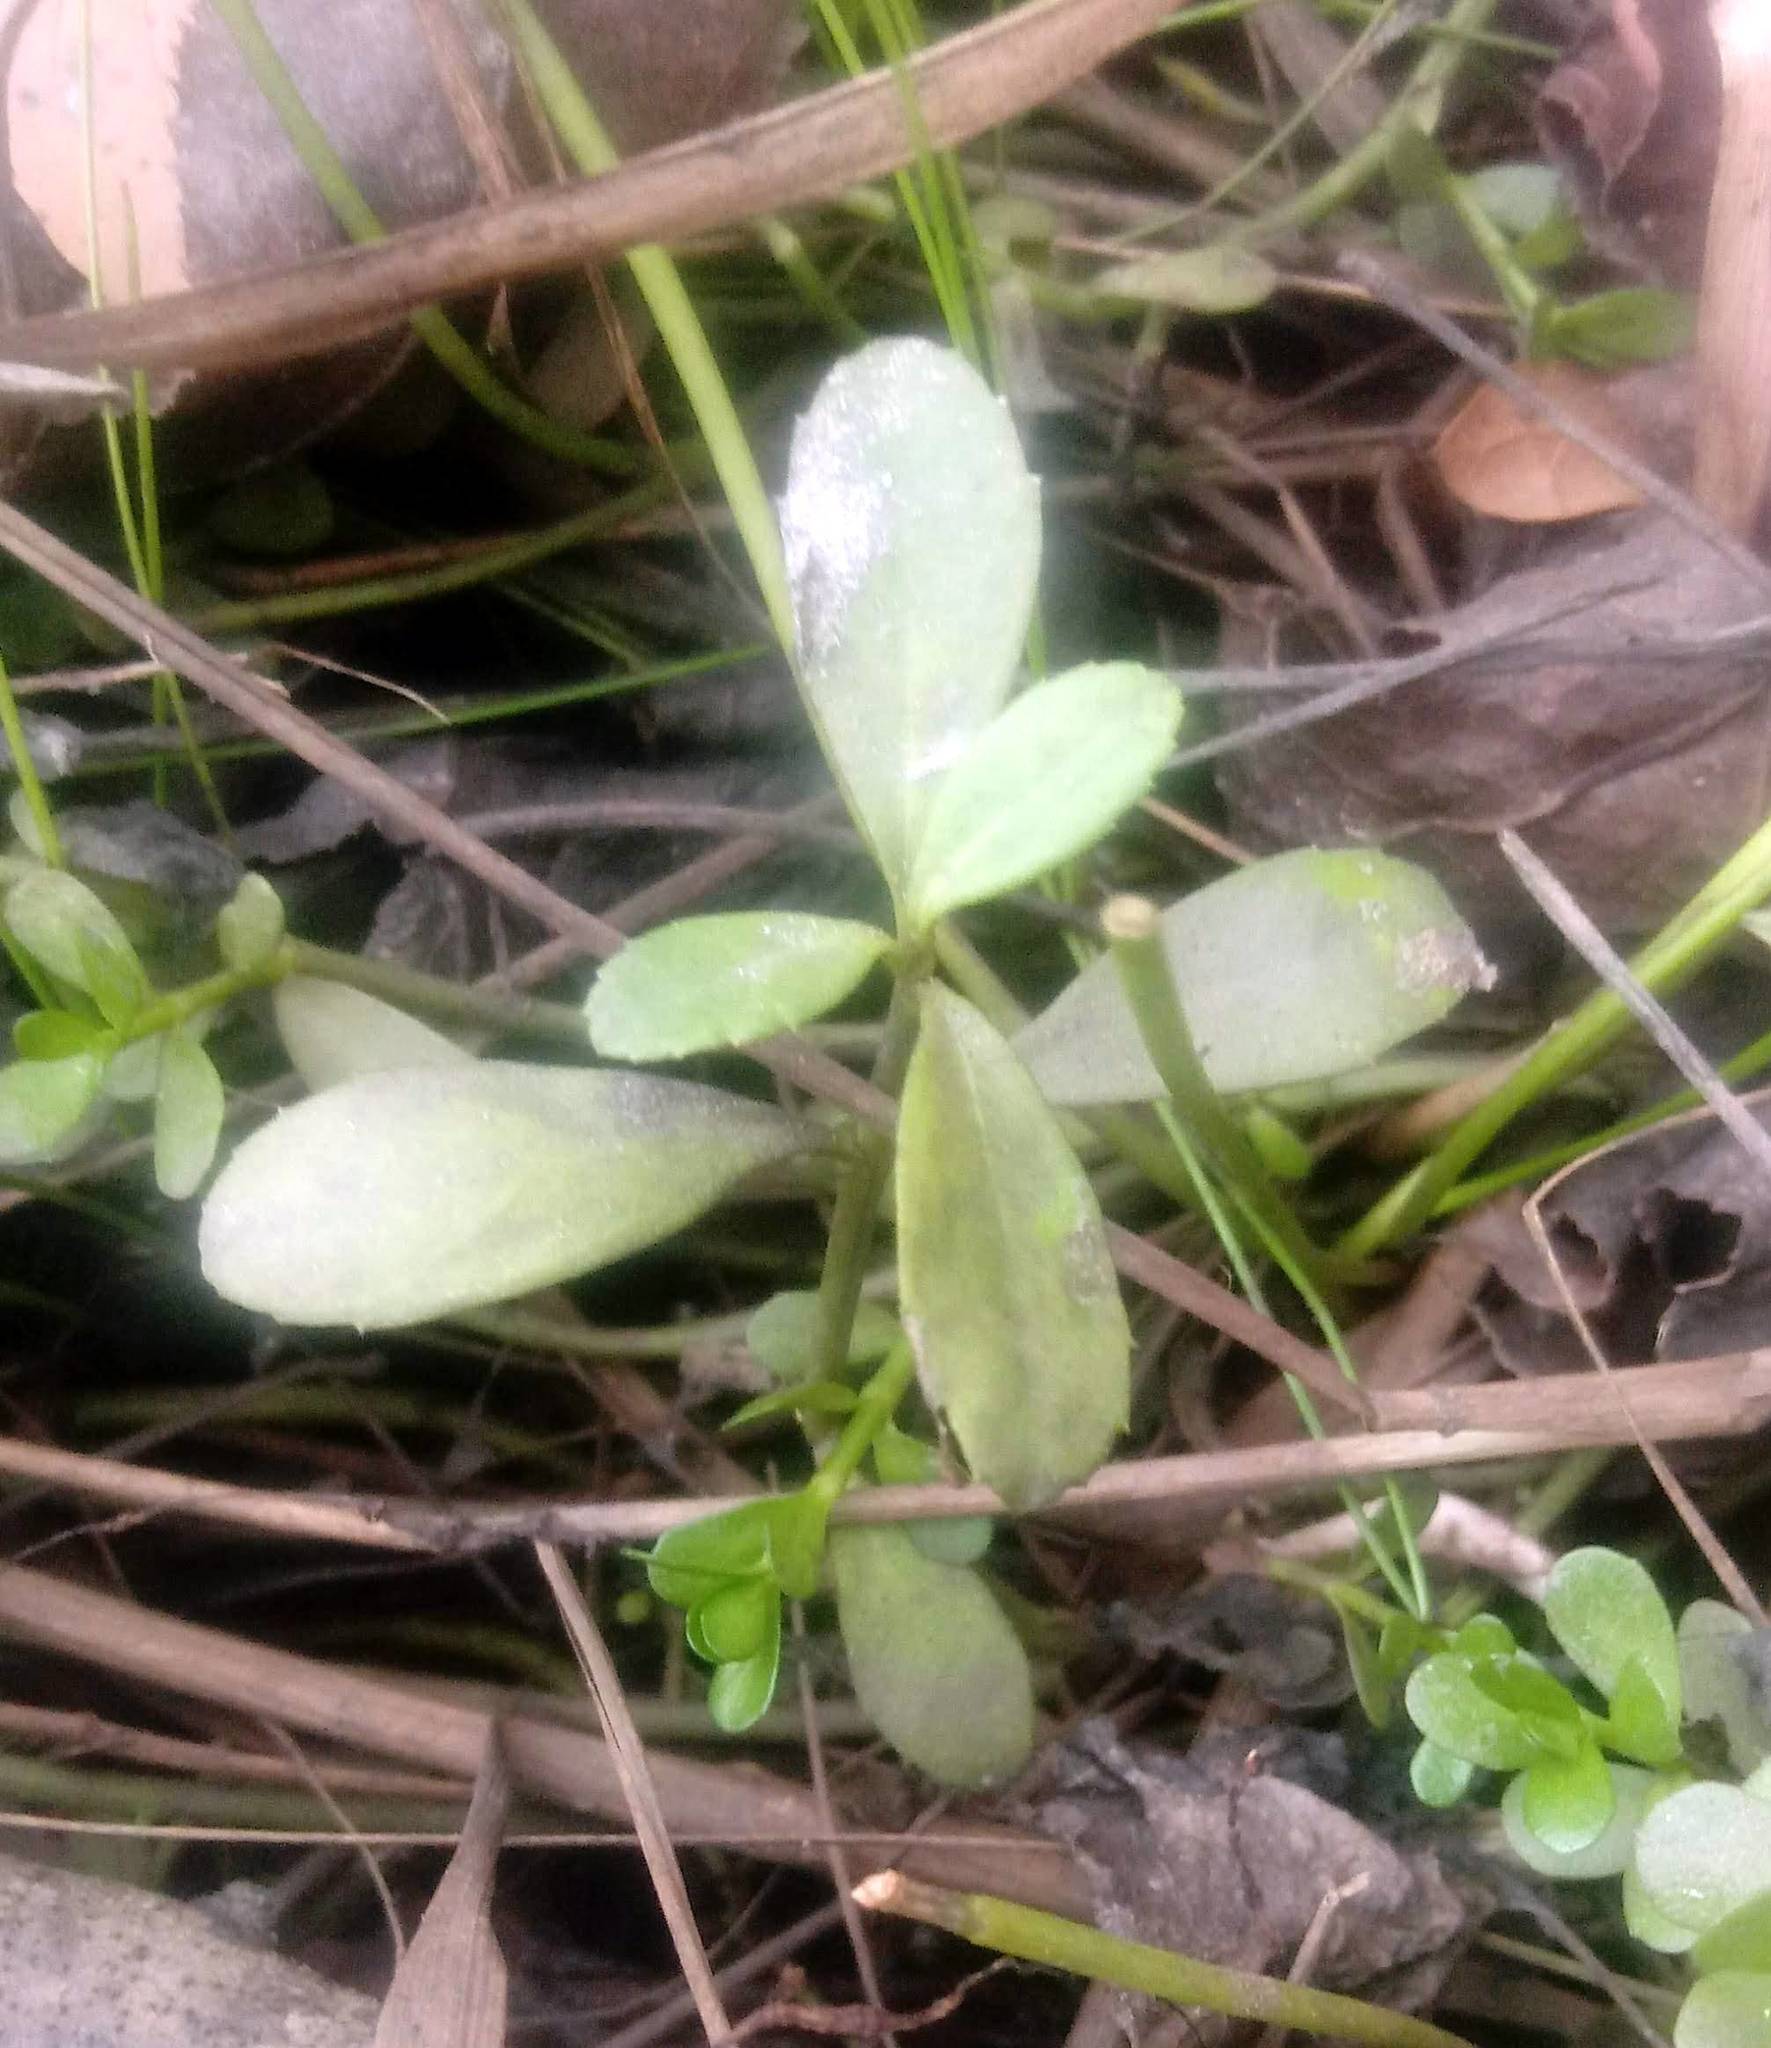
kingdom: Plantae
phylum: Tracheophyta
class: Magnoliopsida
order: Lamiales
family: Verbenaceae
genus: Phyla
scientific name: Phyla nodiflora
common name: Frogfruit
